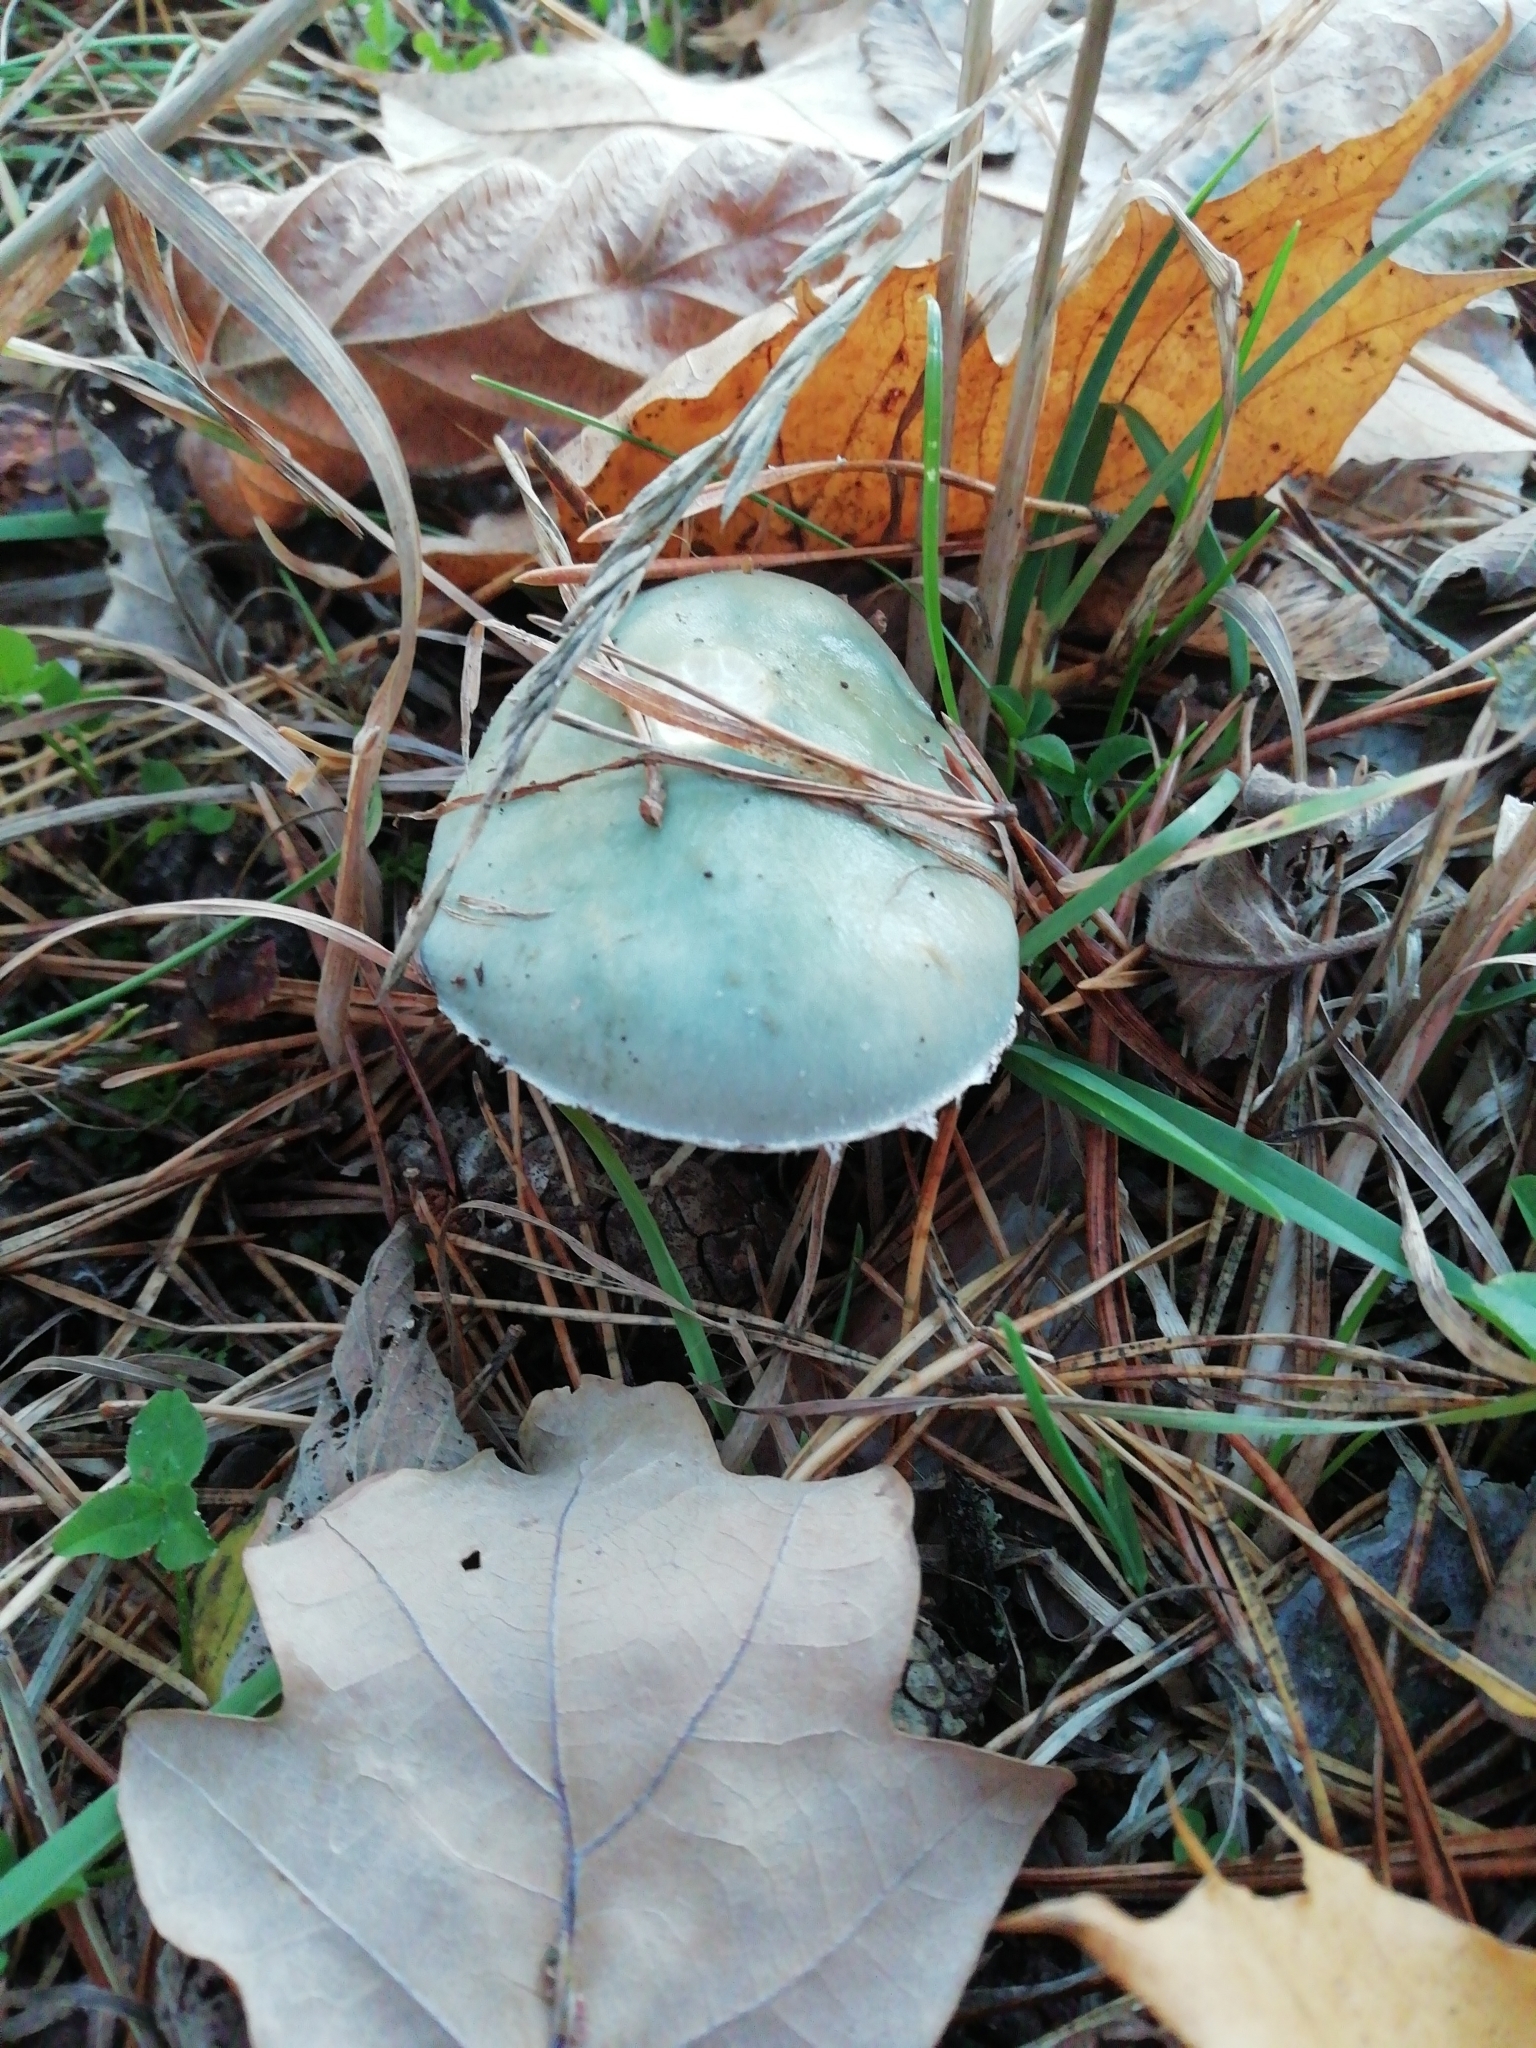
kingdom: Fungi
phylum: Basidiomycota
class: Agaricomycetes
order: Agaricales
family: Strophariaceae
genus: Stropharia
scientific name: Stropharia aeruginosa
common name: Verdigris roundhead
